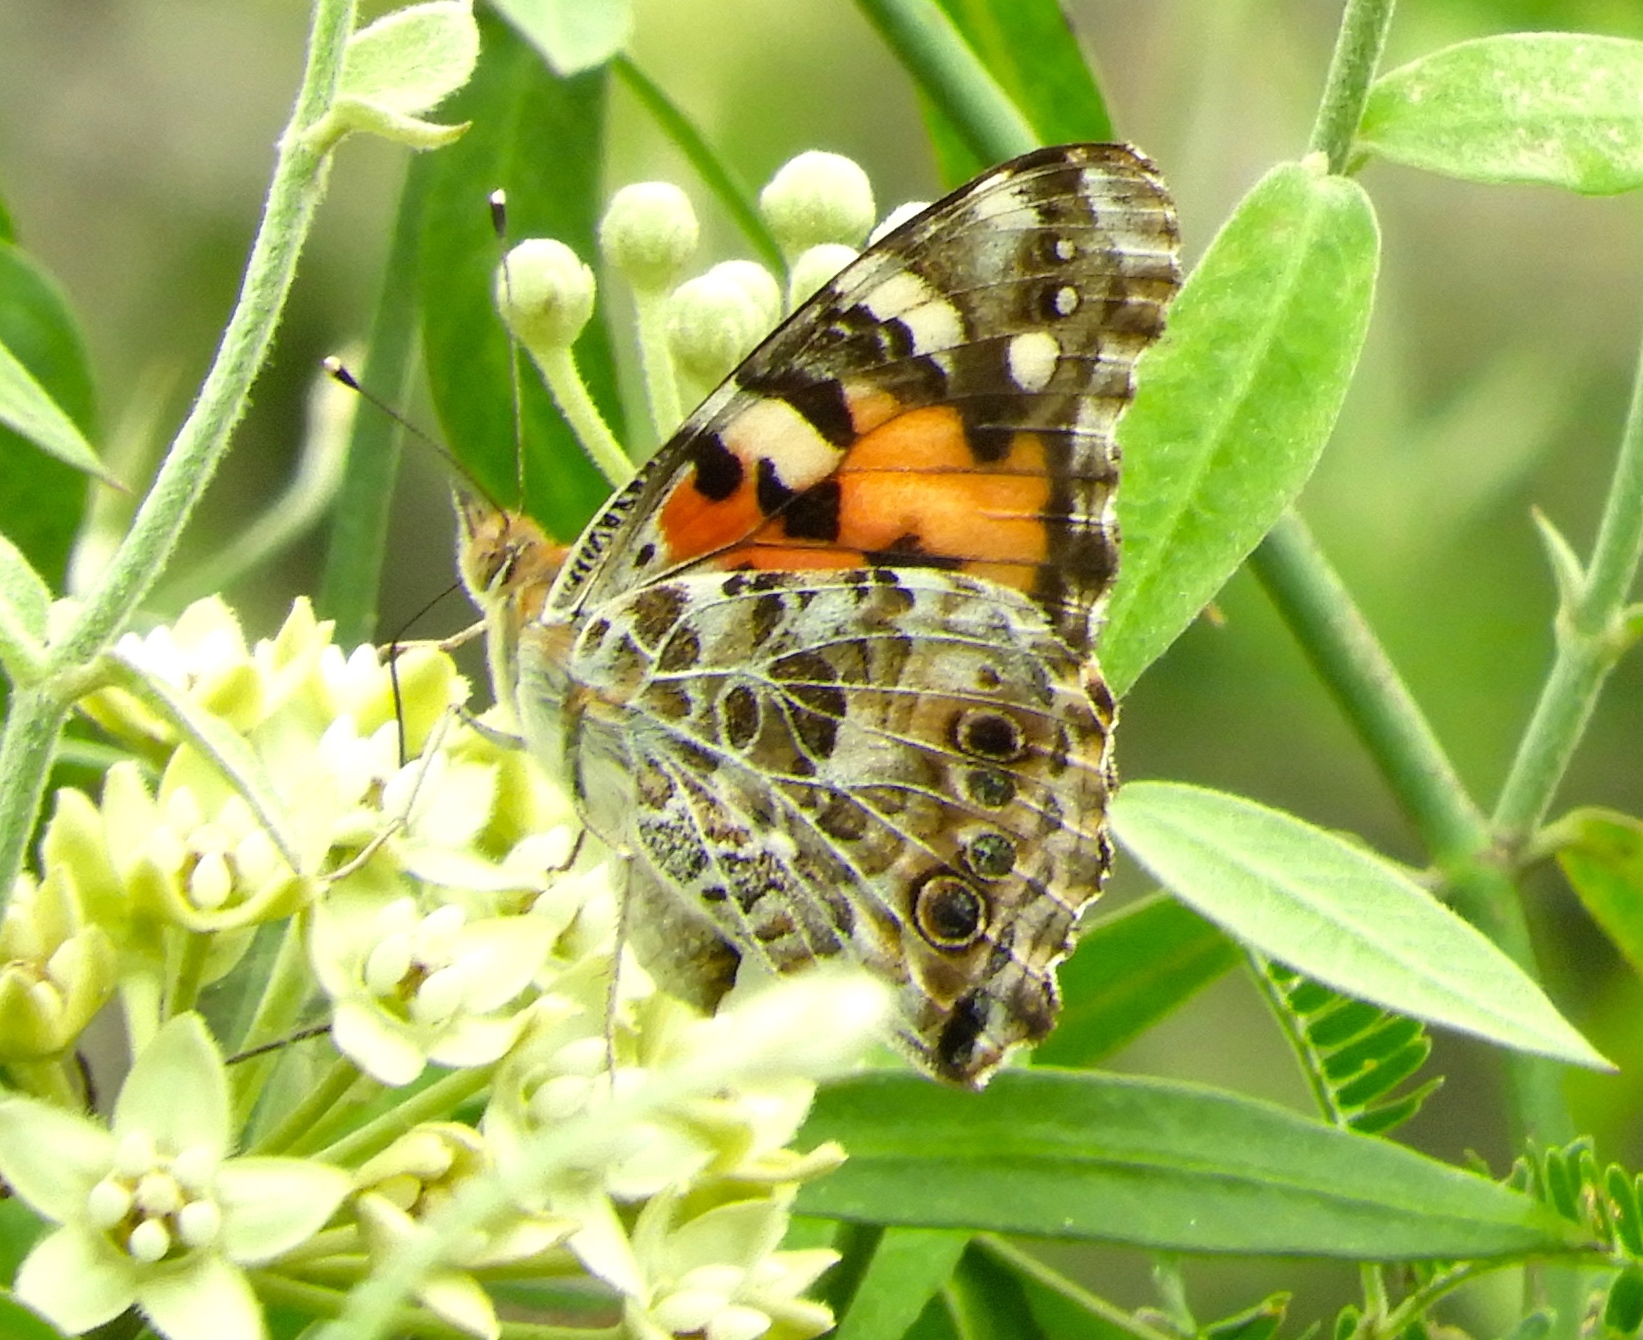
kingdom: Animalia
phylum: Arthropoda
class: Insecta
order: Lepidoptera
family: Nymphalidae
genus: Vanessa
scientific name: Vanessa cardui
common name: Painted lady
